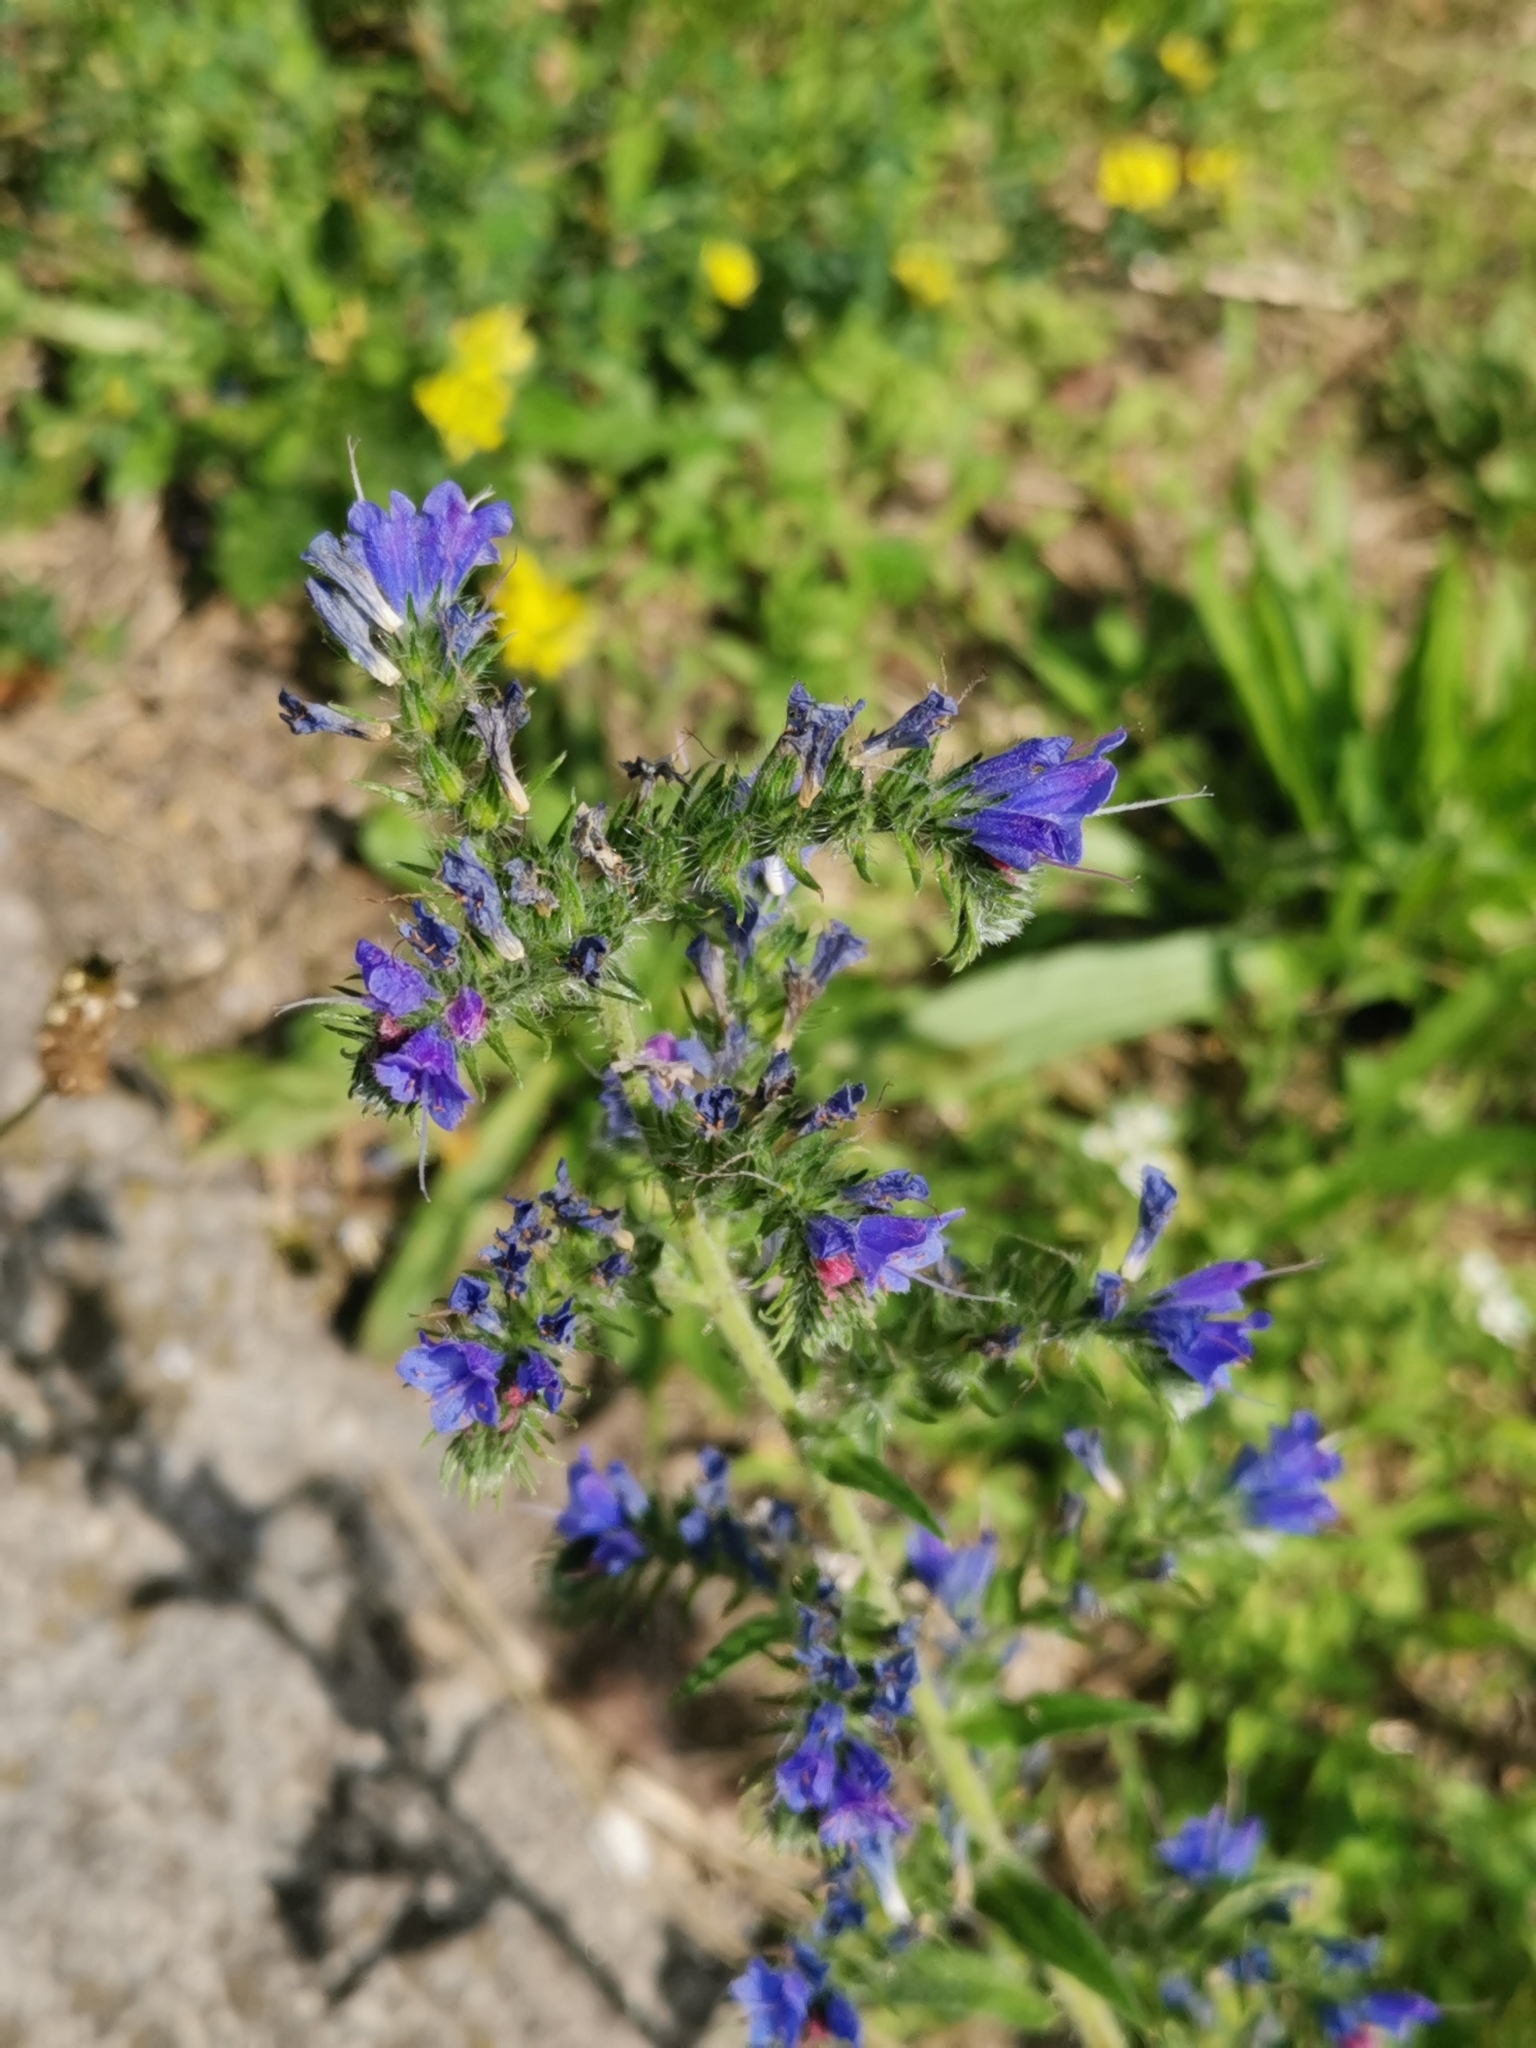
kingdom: Plantae
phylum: Tracheophyta
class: Magnoliopsida
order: Boraginales
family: Boraginaceae
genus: Echium
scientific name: Echium vulgare
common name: Common viper's bugloss
